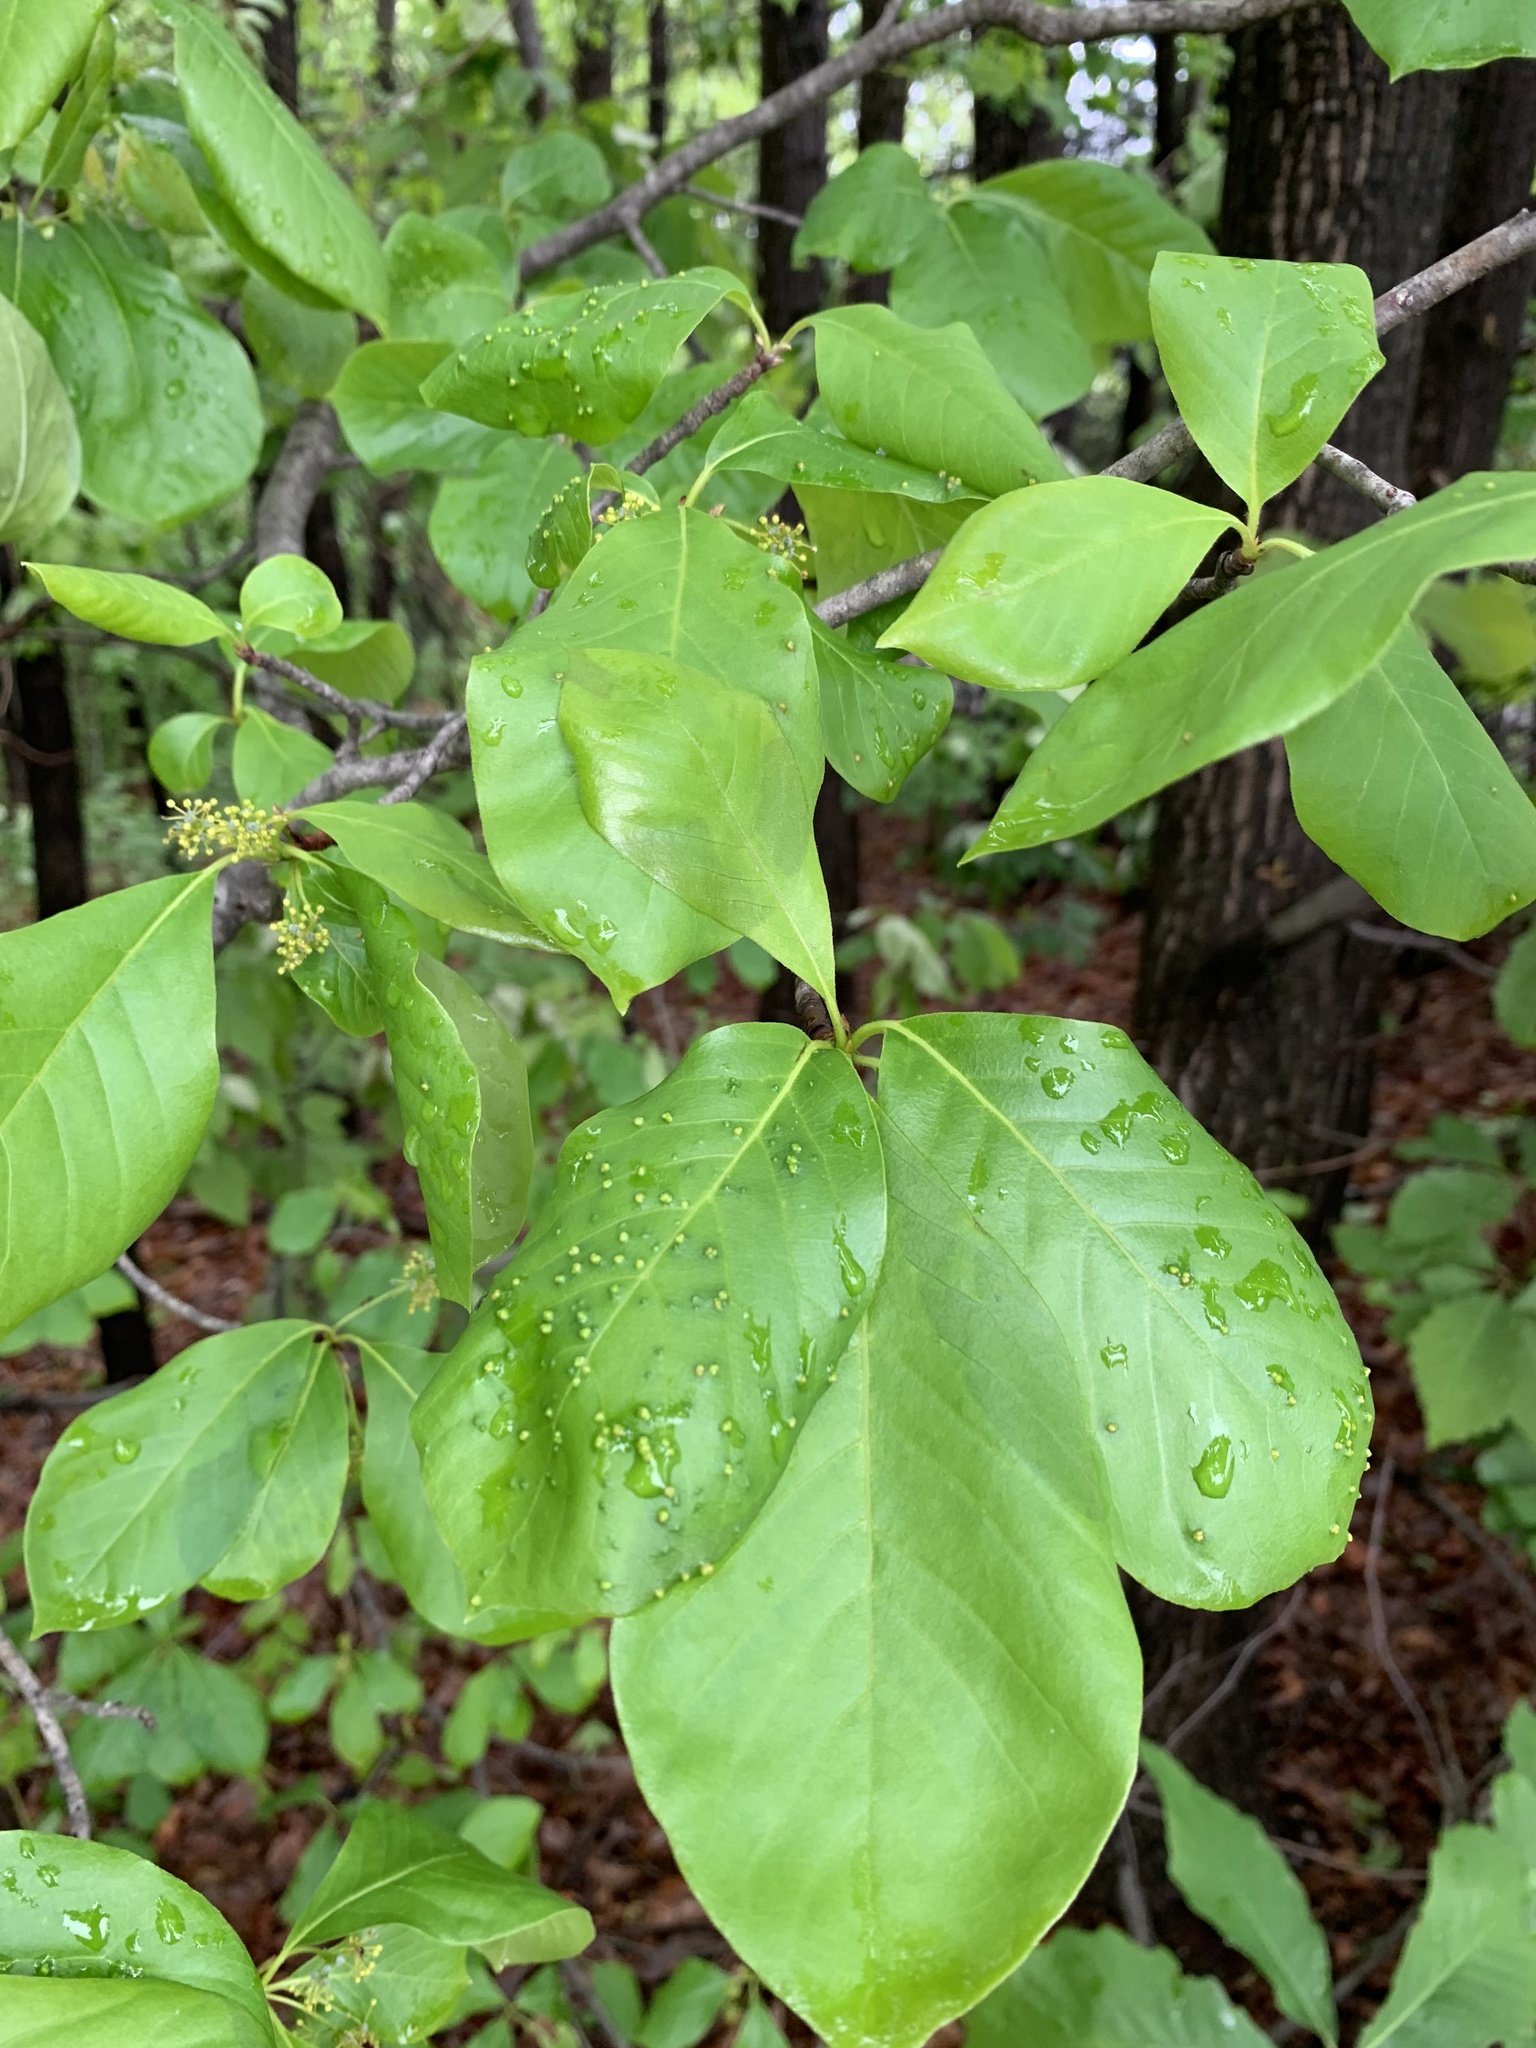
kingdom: Plantae
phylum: Tracheophyta
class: Magnoliopsida
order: Cornales
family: Nyssaceae
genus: Nyssa
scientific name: Nyssa sylvatica
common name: Black tupelo
